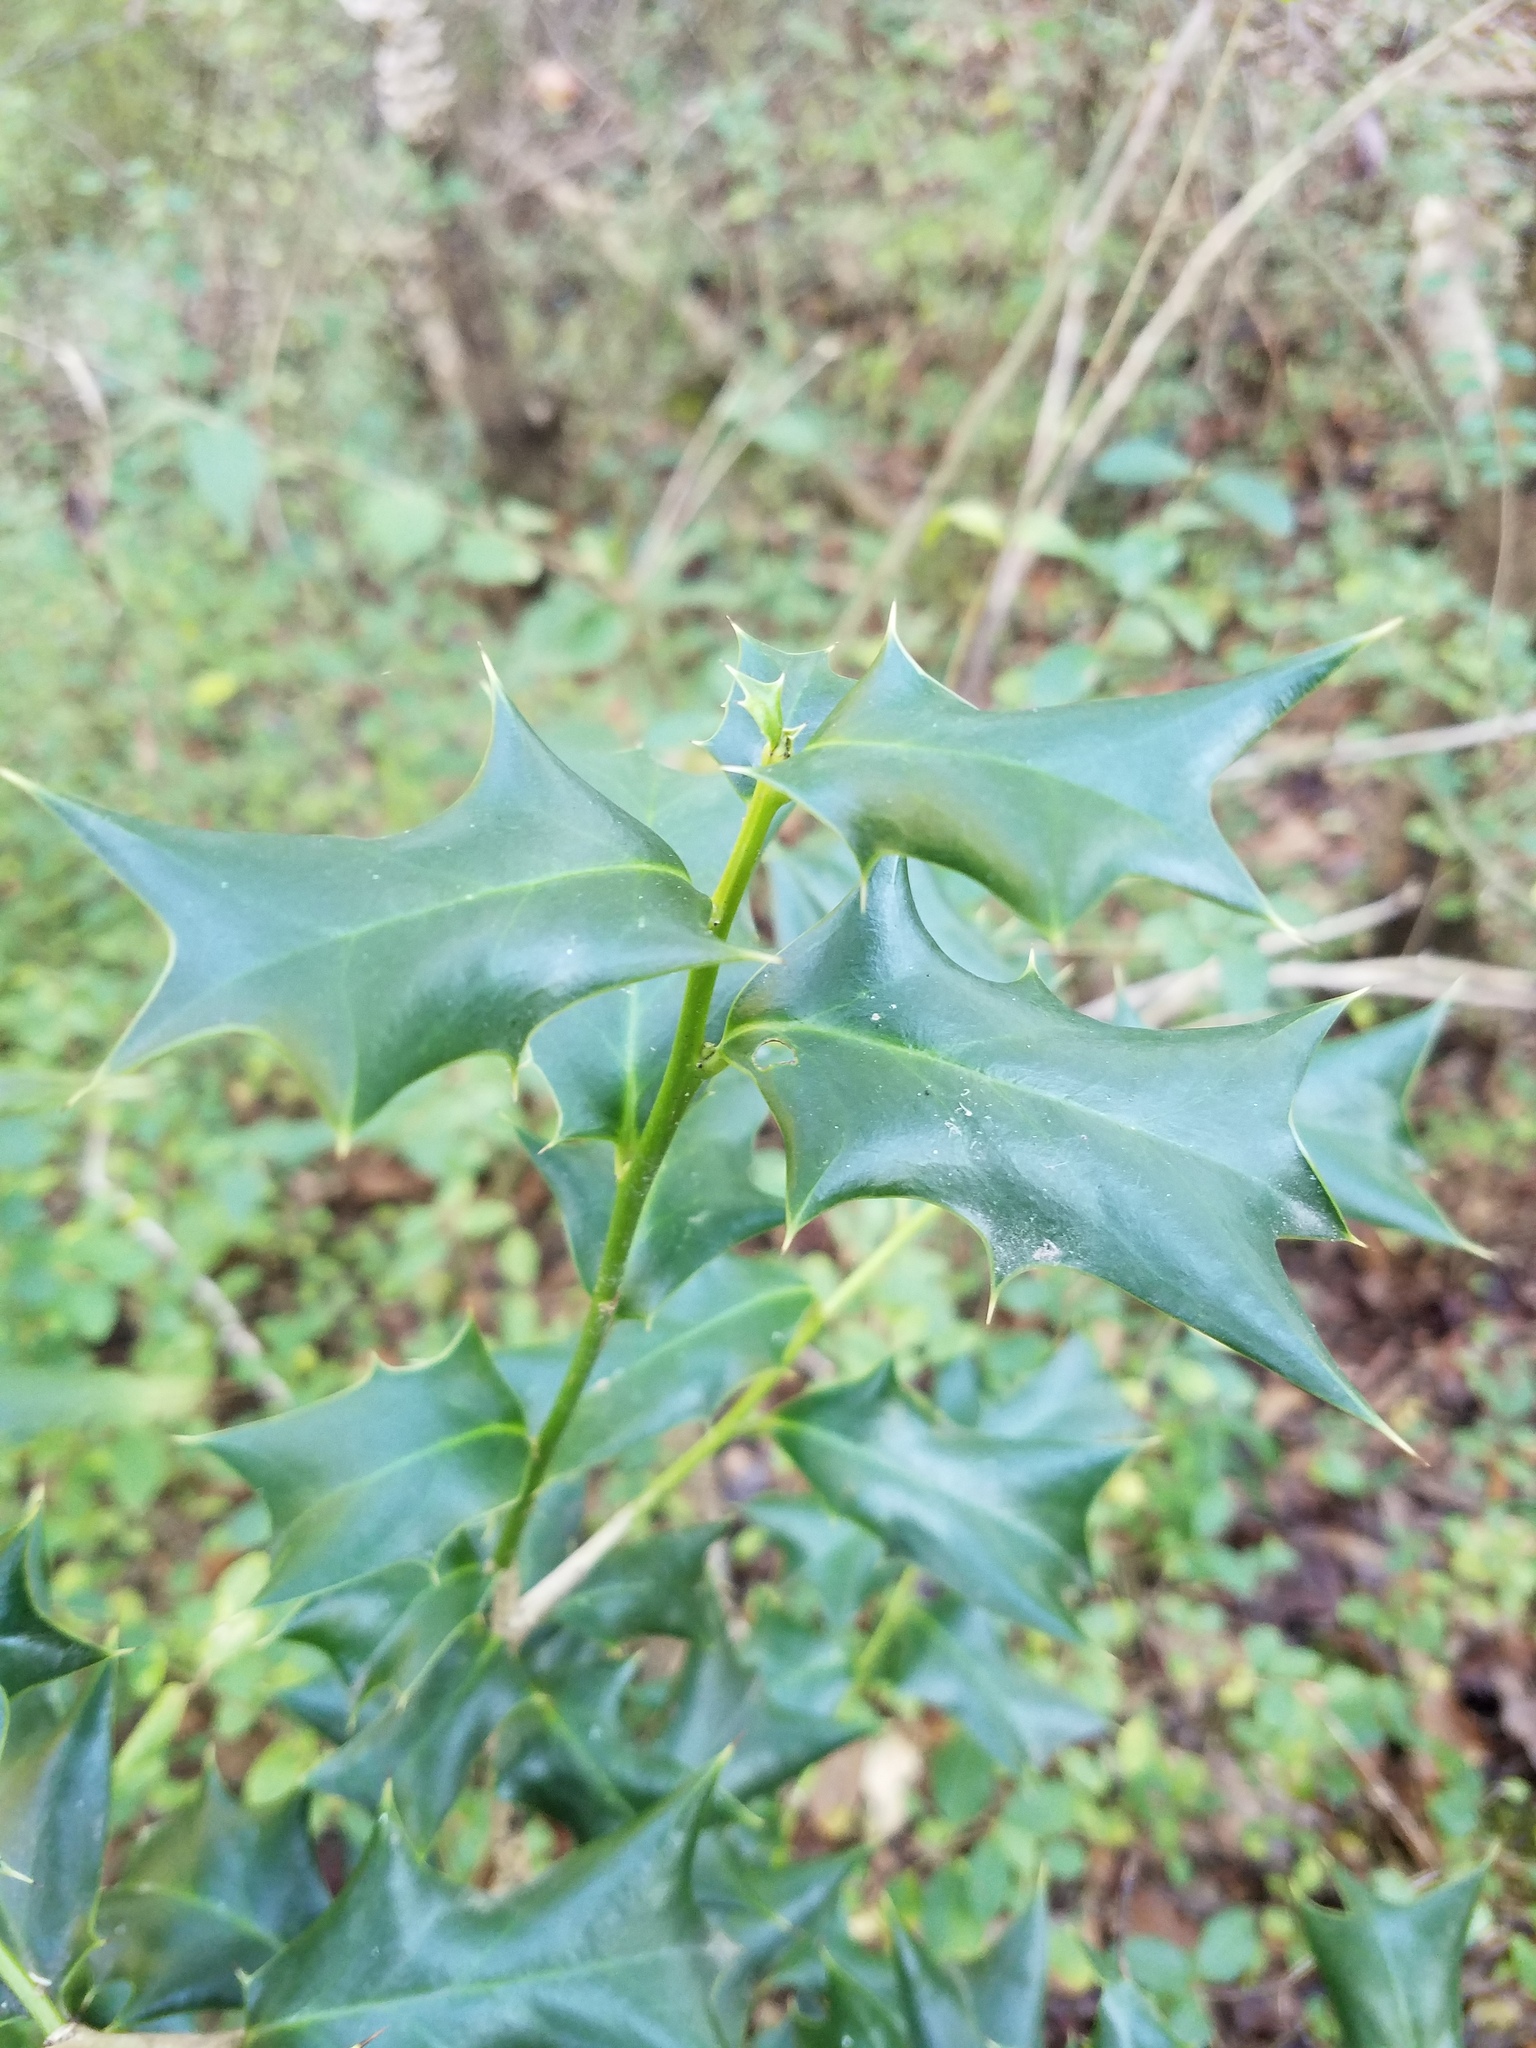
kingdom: Plantae
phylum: Tracheophyta
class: Magnoliopsida
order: Aquifoliales
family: Aquifoliaceae
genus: Ilex
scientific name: Ilex cornuta
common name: Chinese holly
